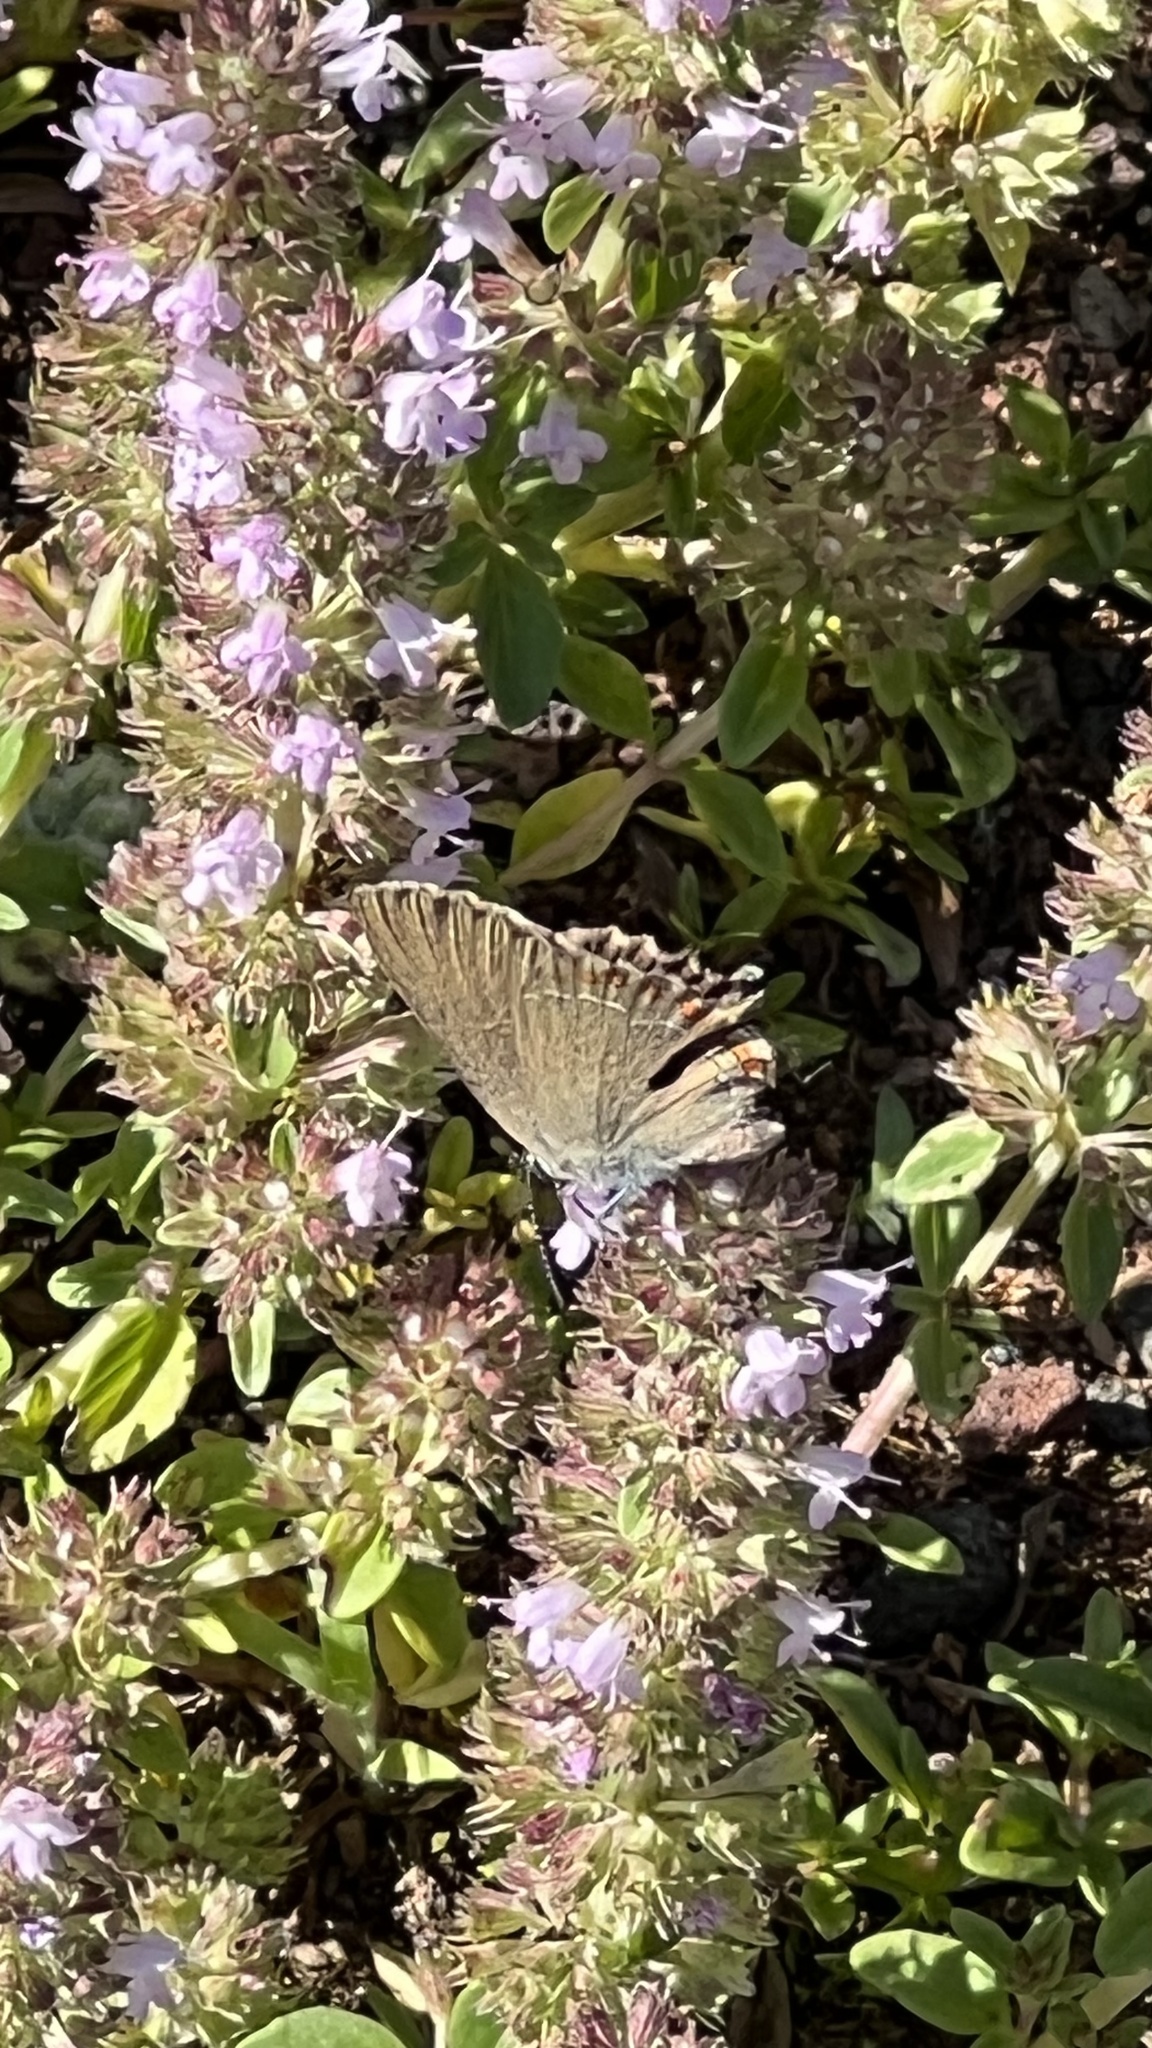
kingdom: Animalia
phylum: Arthropoda
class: Insecta
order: Lepidoptera
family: Lycaenidae
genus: Fixsenia
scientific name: Fixsenia esculi
